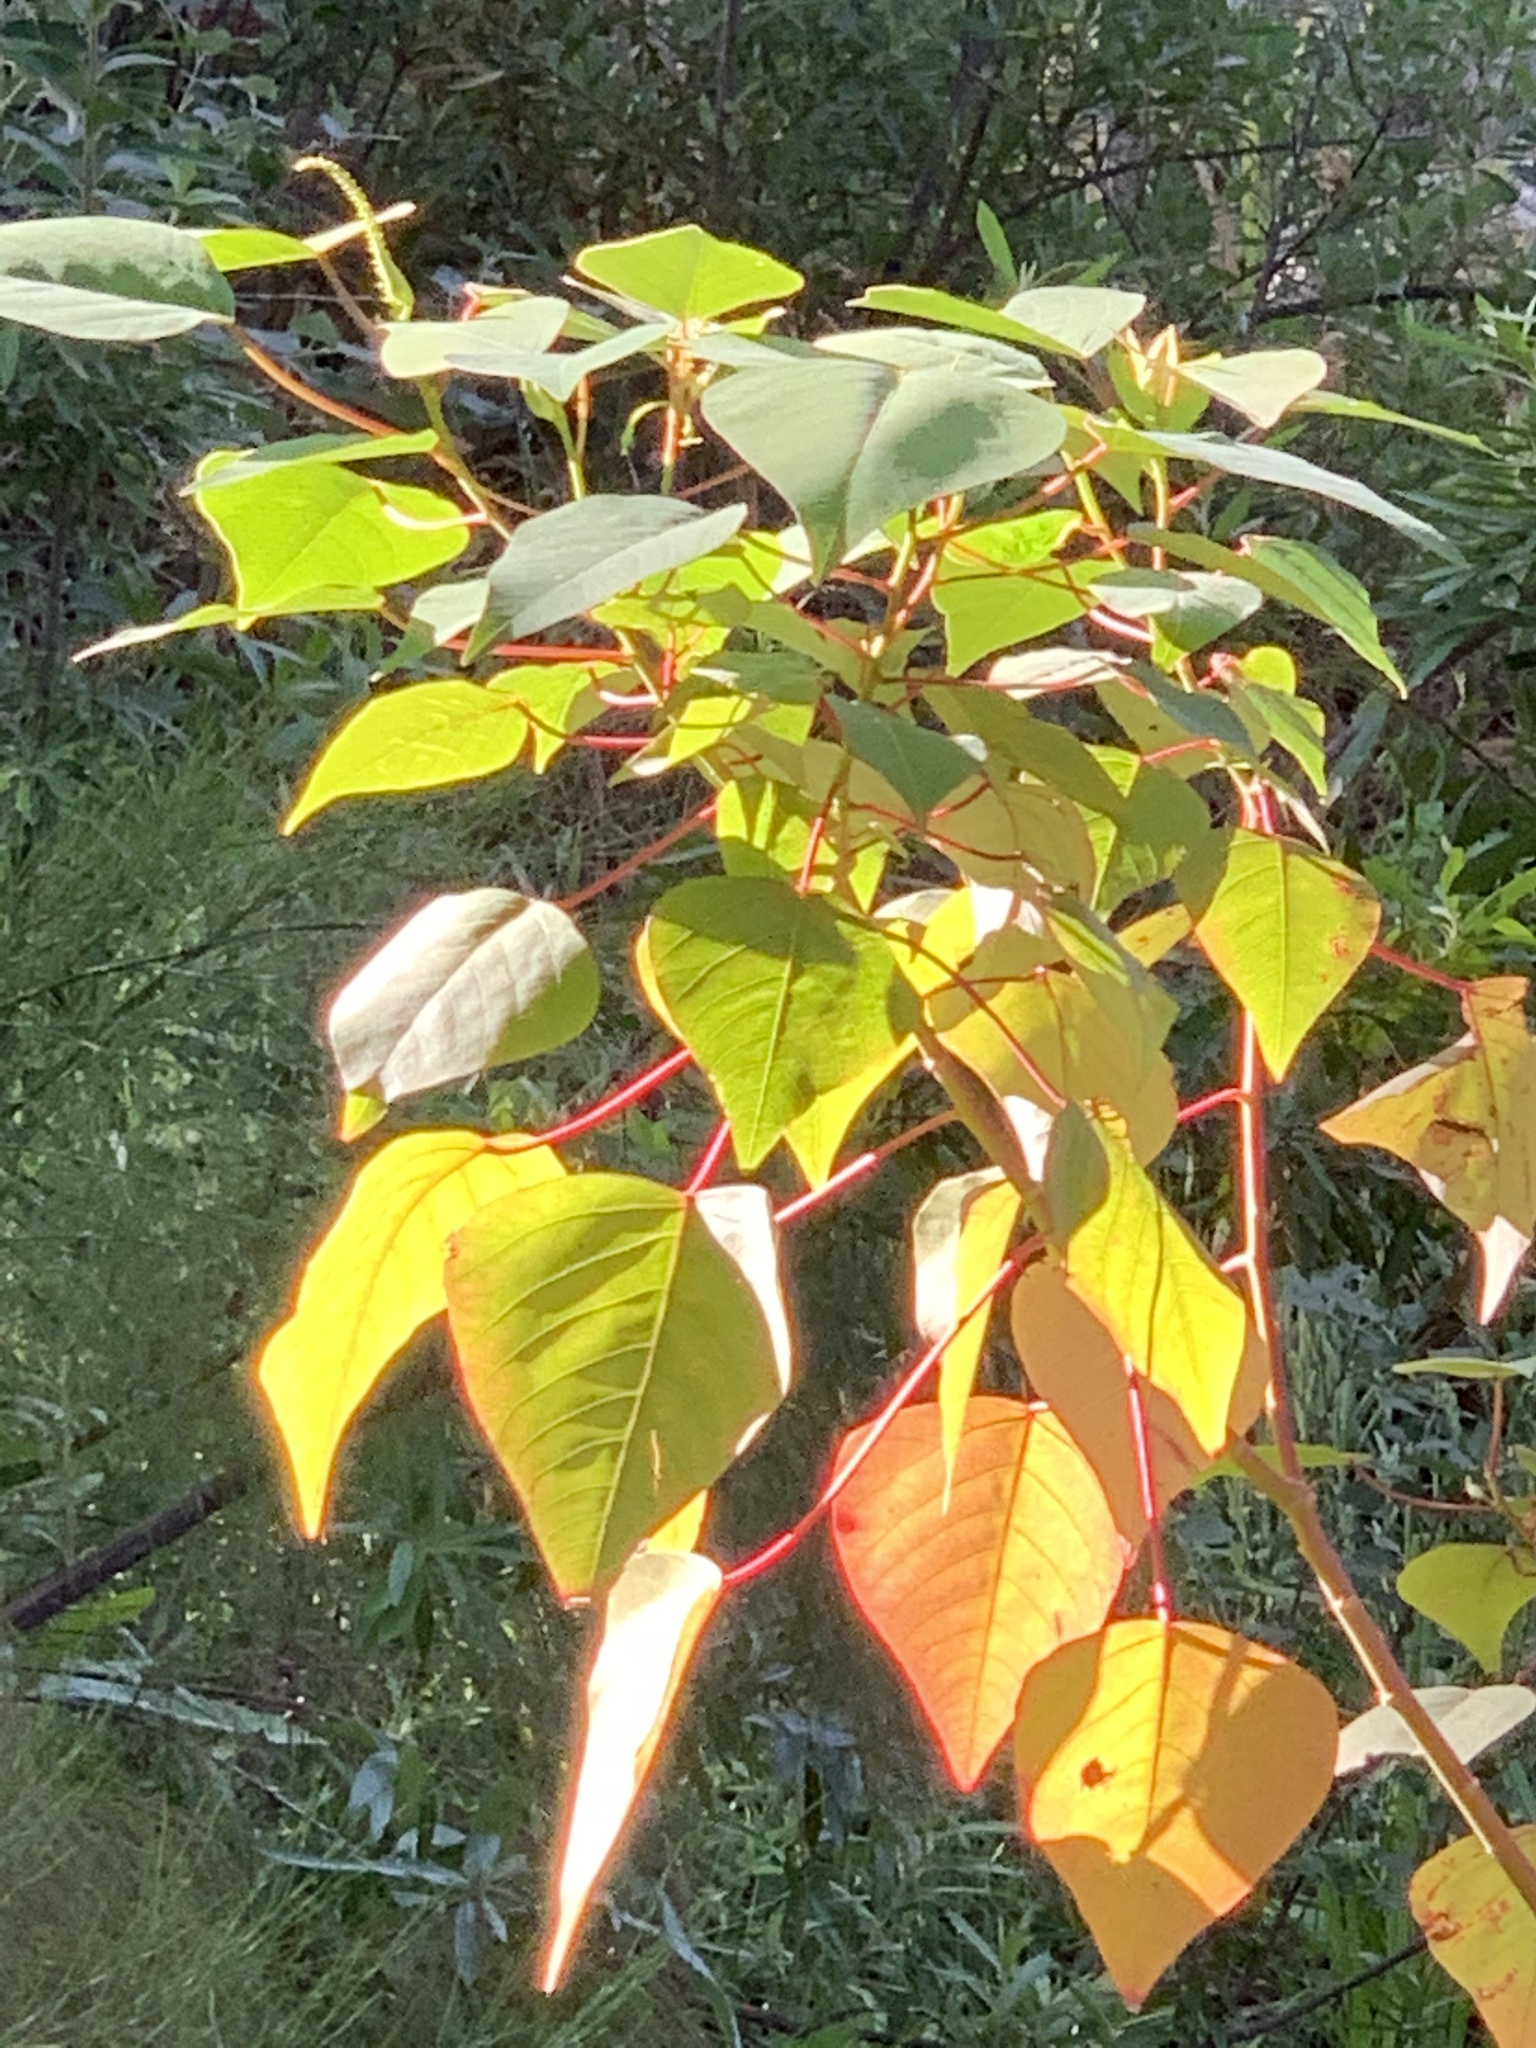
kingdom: Plantae
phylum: Tracheophyta
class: Magnoliopsida
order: Malpighiales
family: Euphorbiaceae
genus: Homalanthus
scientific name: Homalanthus populifolius
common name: Queensland poplar
